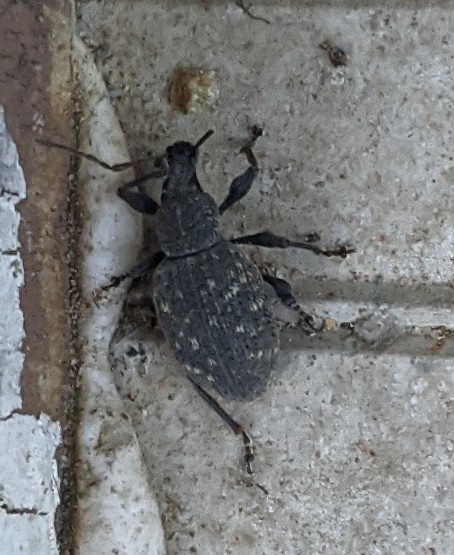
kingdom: Animalia
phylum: Arthropoda
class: Insecta
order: Coleoptera
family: Curculionidae
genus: Otiorhynchus
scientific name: Otiorhynchus sulcatus
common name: Black vine weevil
